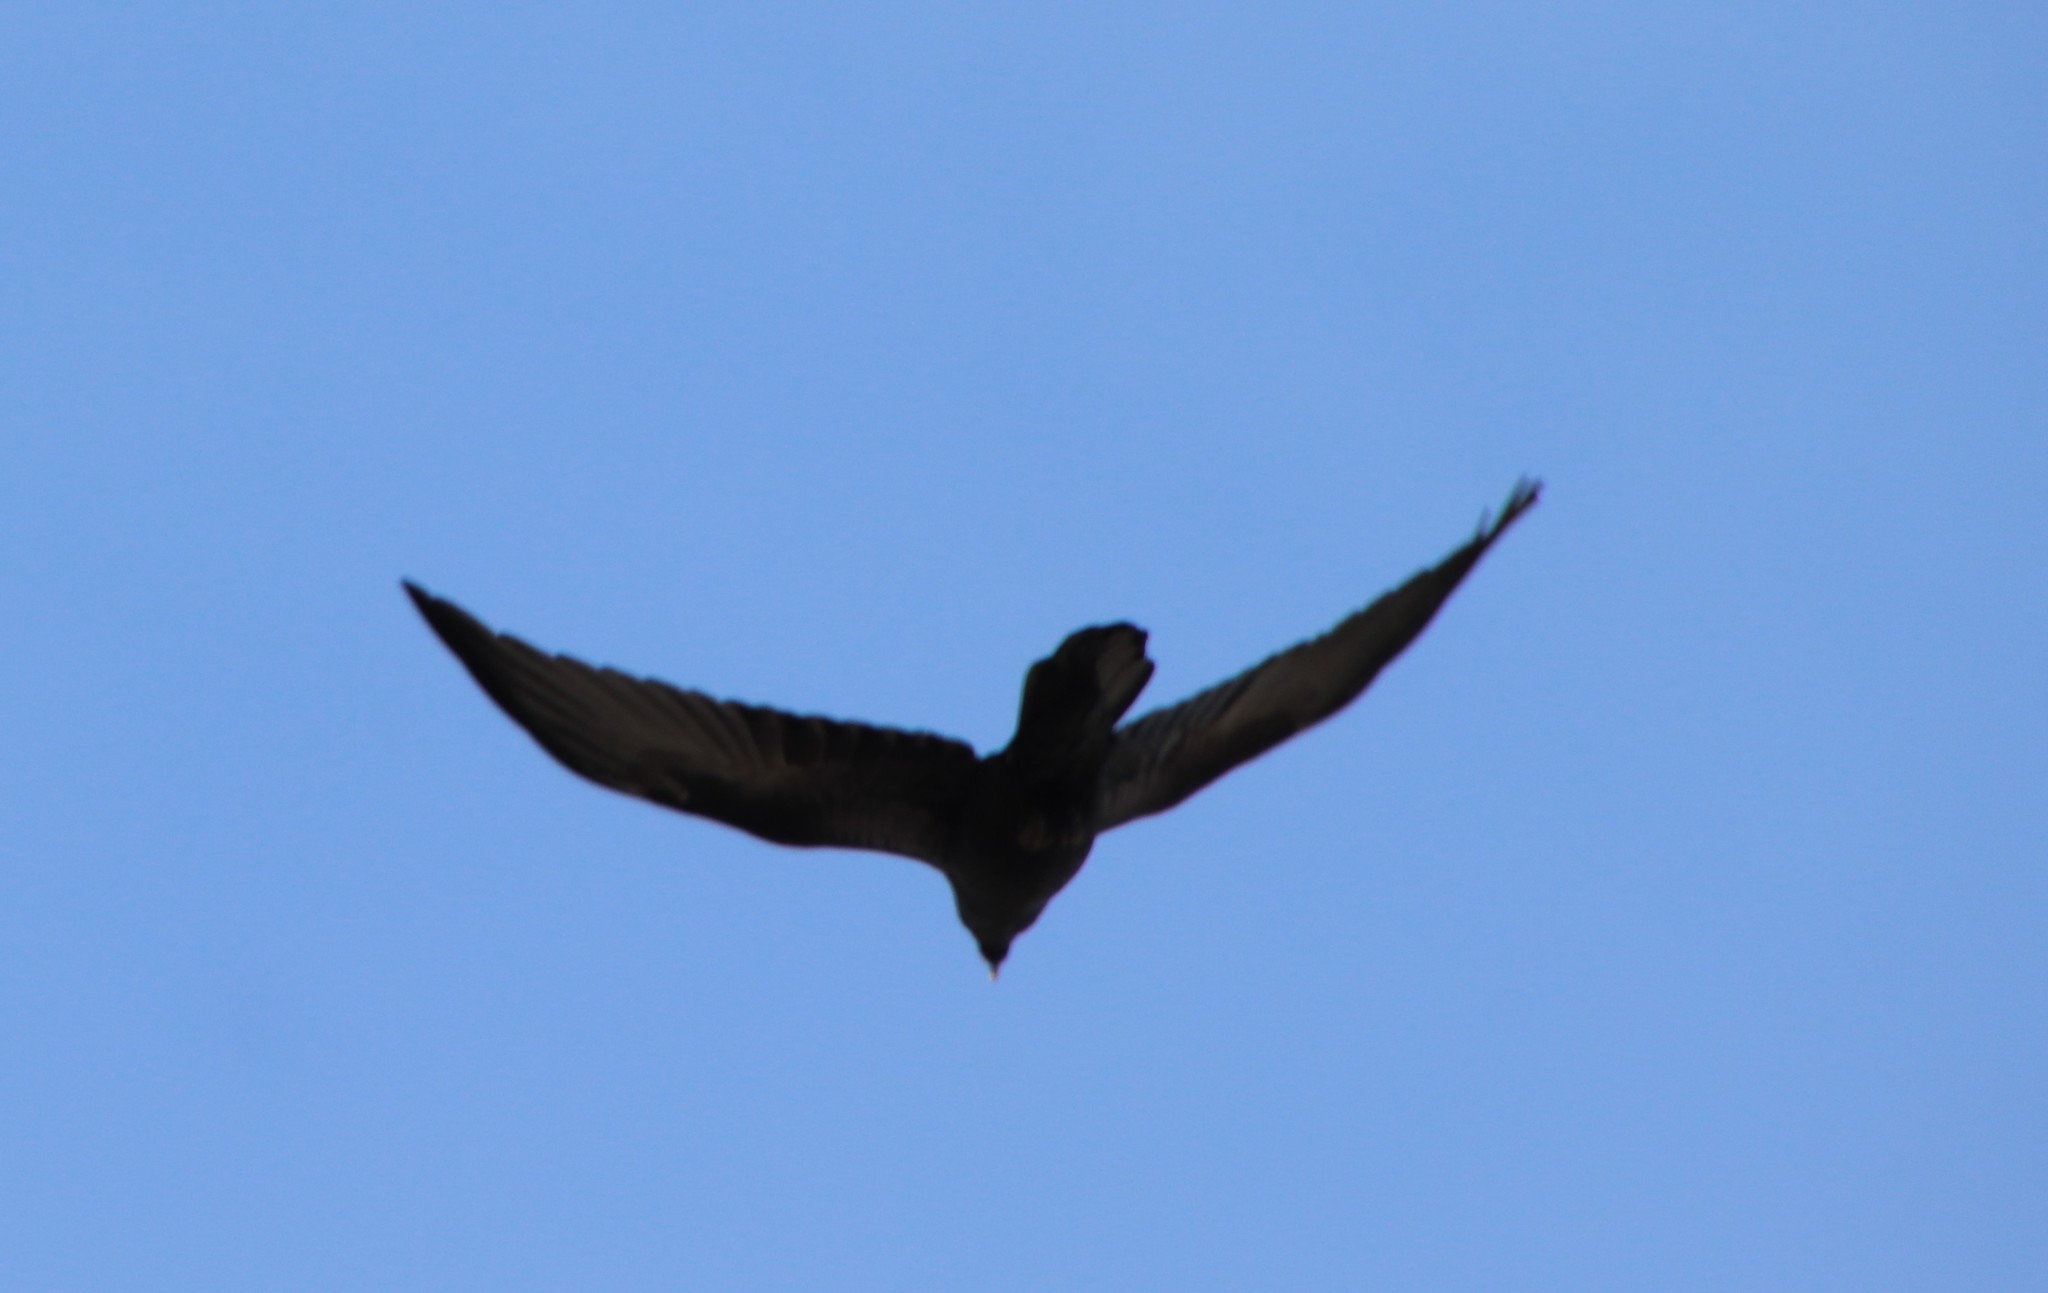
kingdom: Animalia
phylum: Chordata
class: Aves
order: Passeriformes
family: Corvidae
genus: Corvus
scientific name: Corvus corax
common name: Common raven
